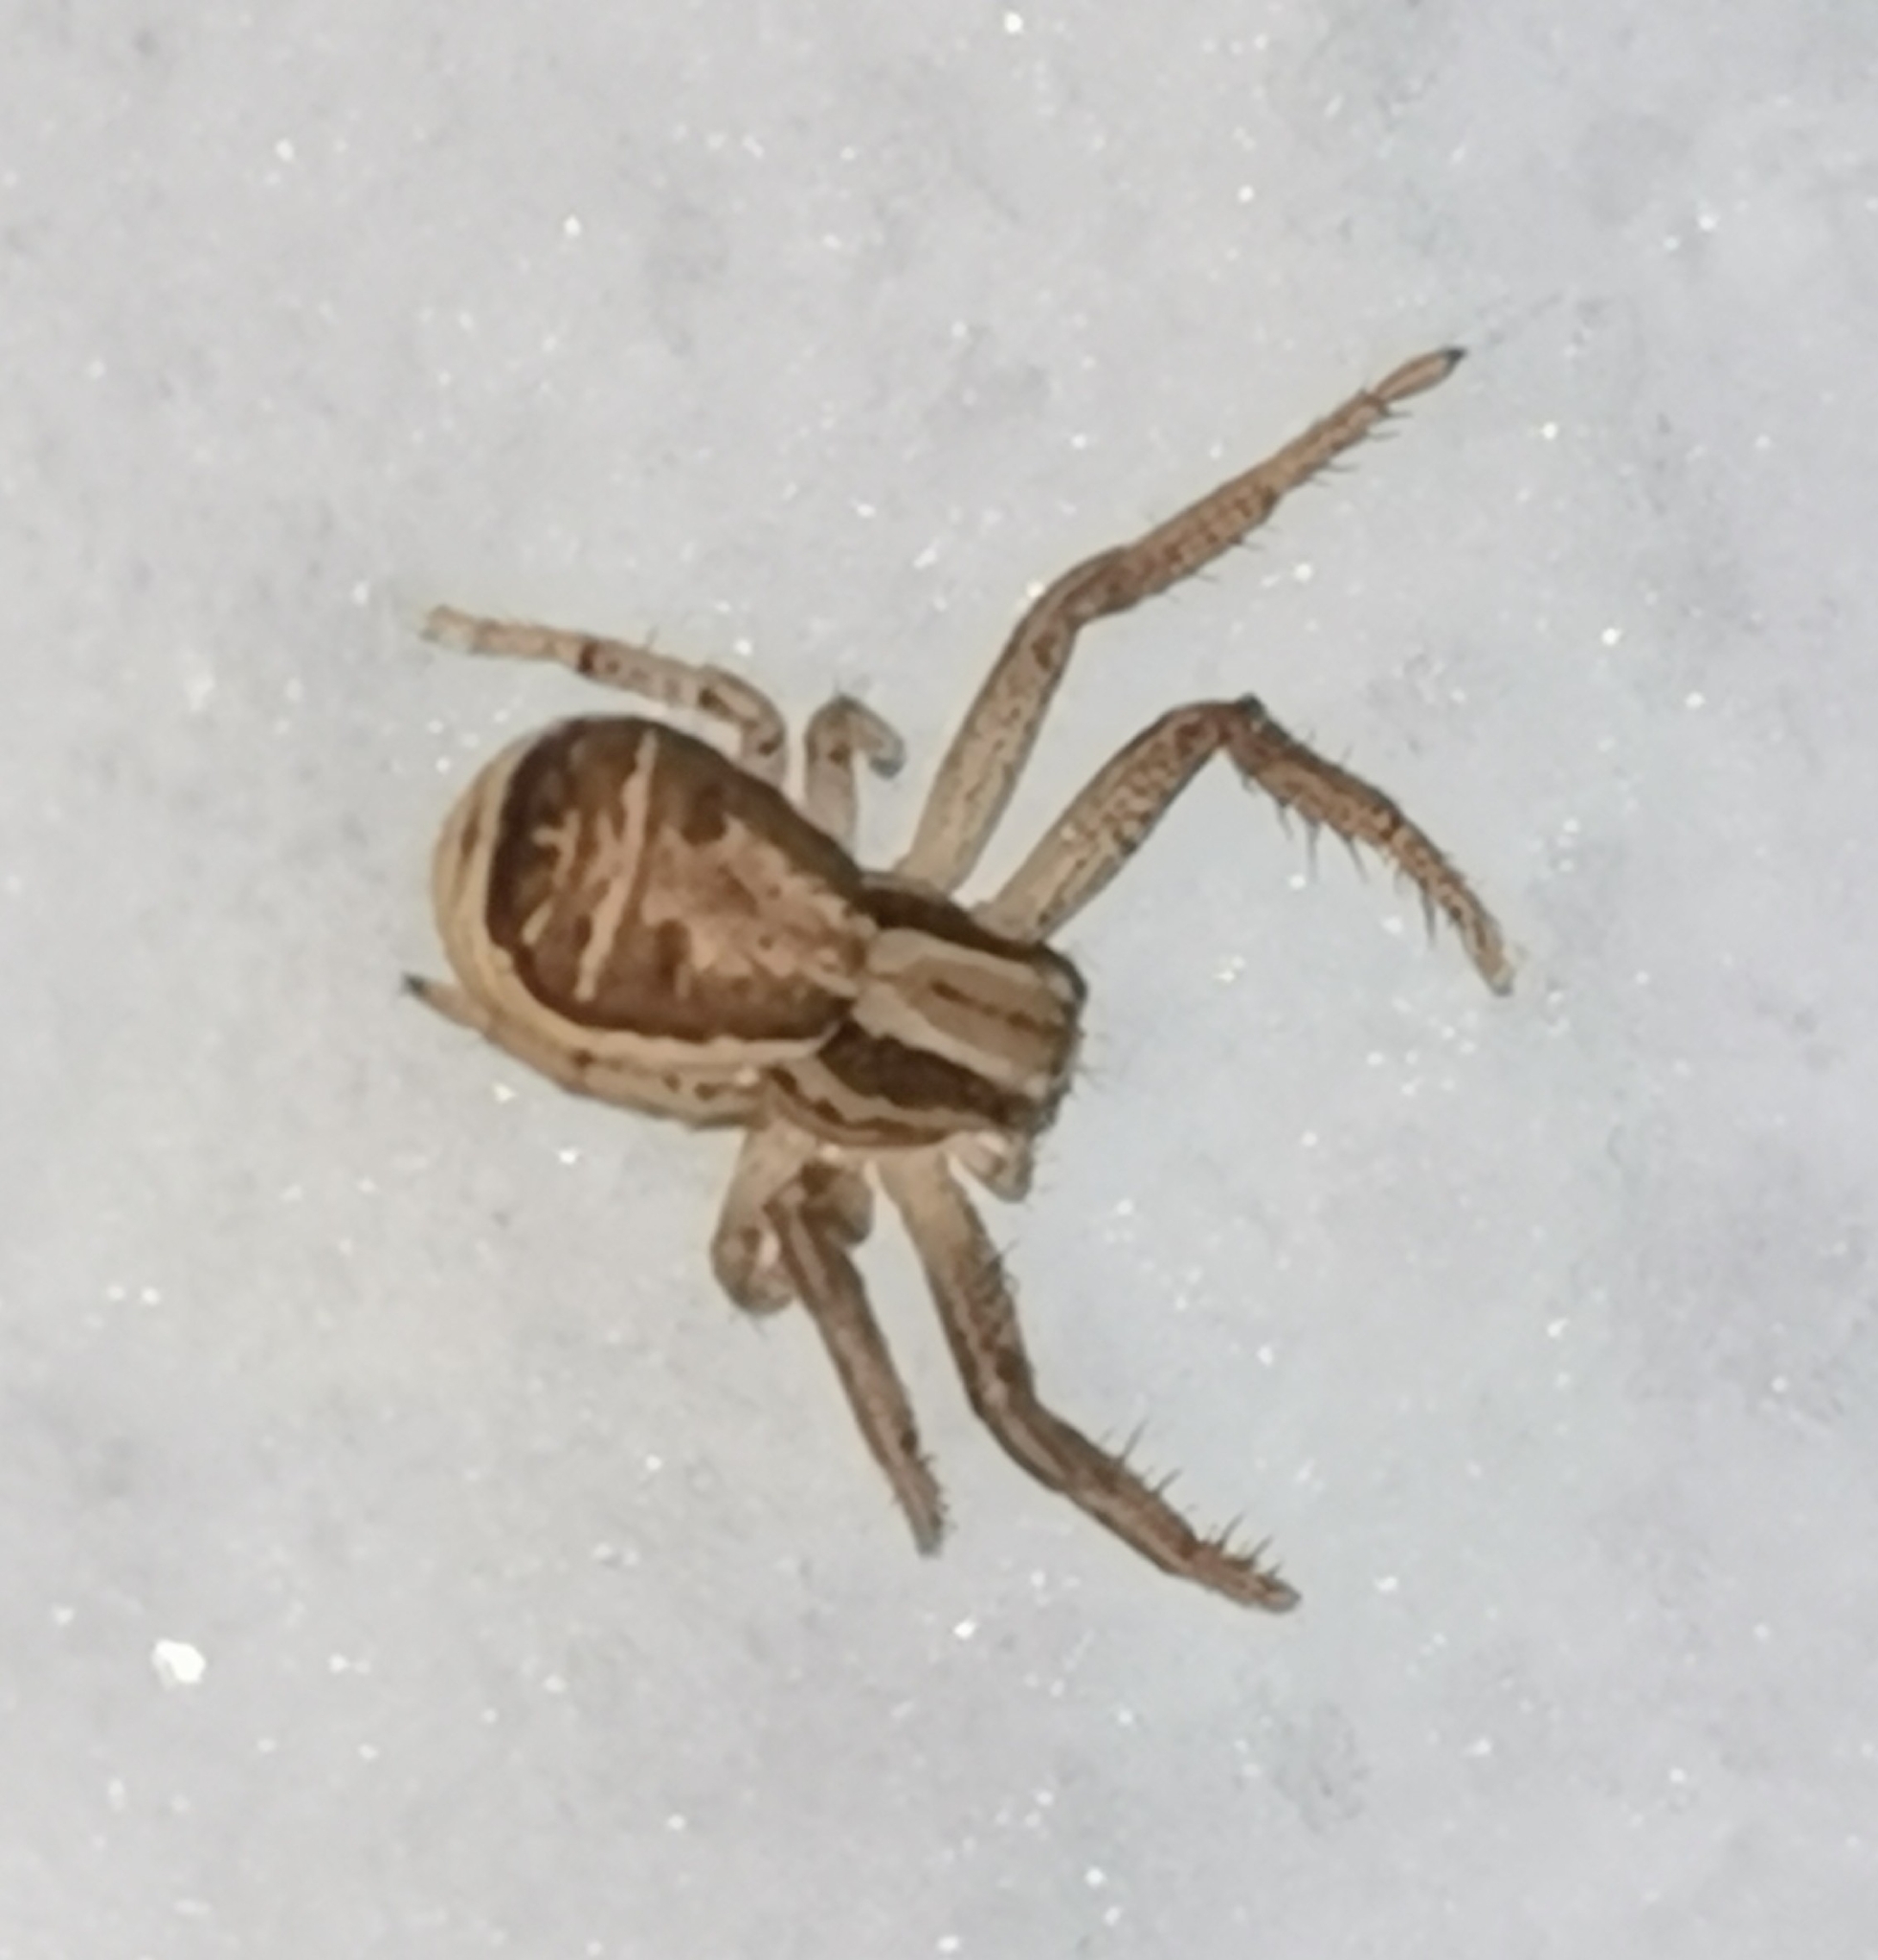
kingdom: Animalia
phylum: Arthropoda
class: Arachnida
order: Araneae
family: Thomisidae
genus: Xysticus
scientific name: Xysticus ulmi
